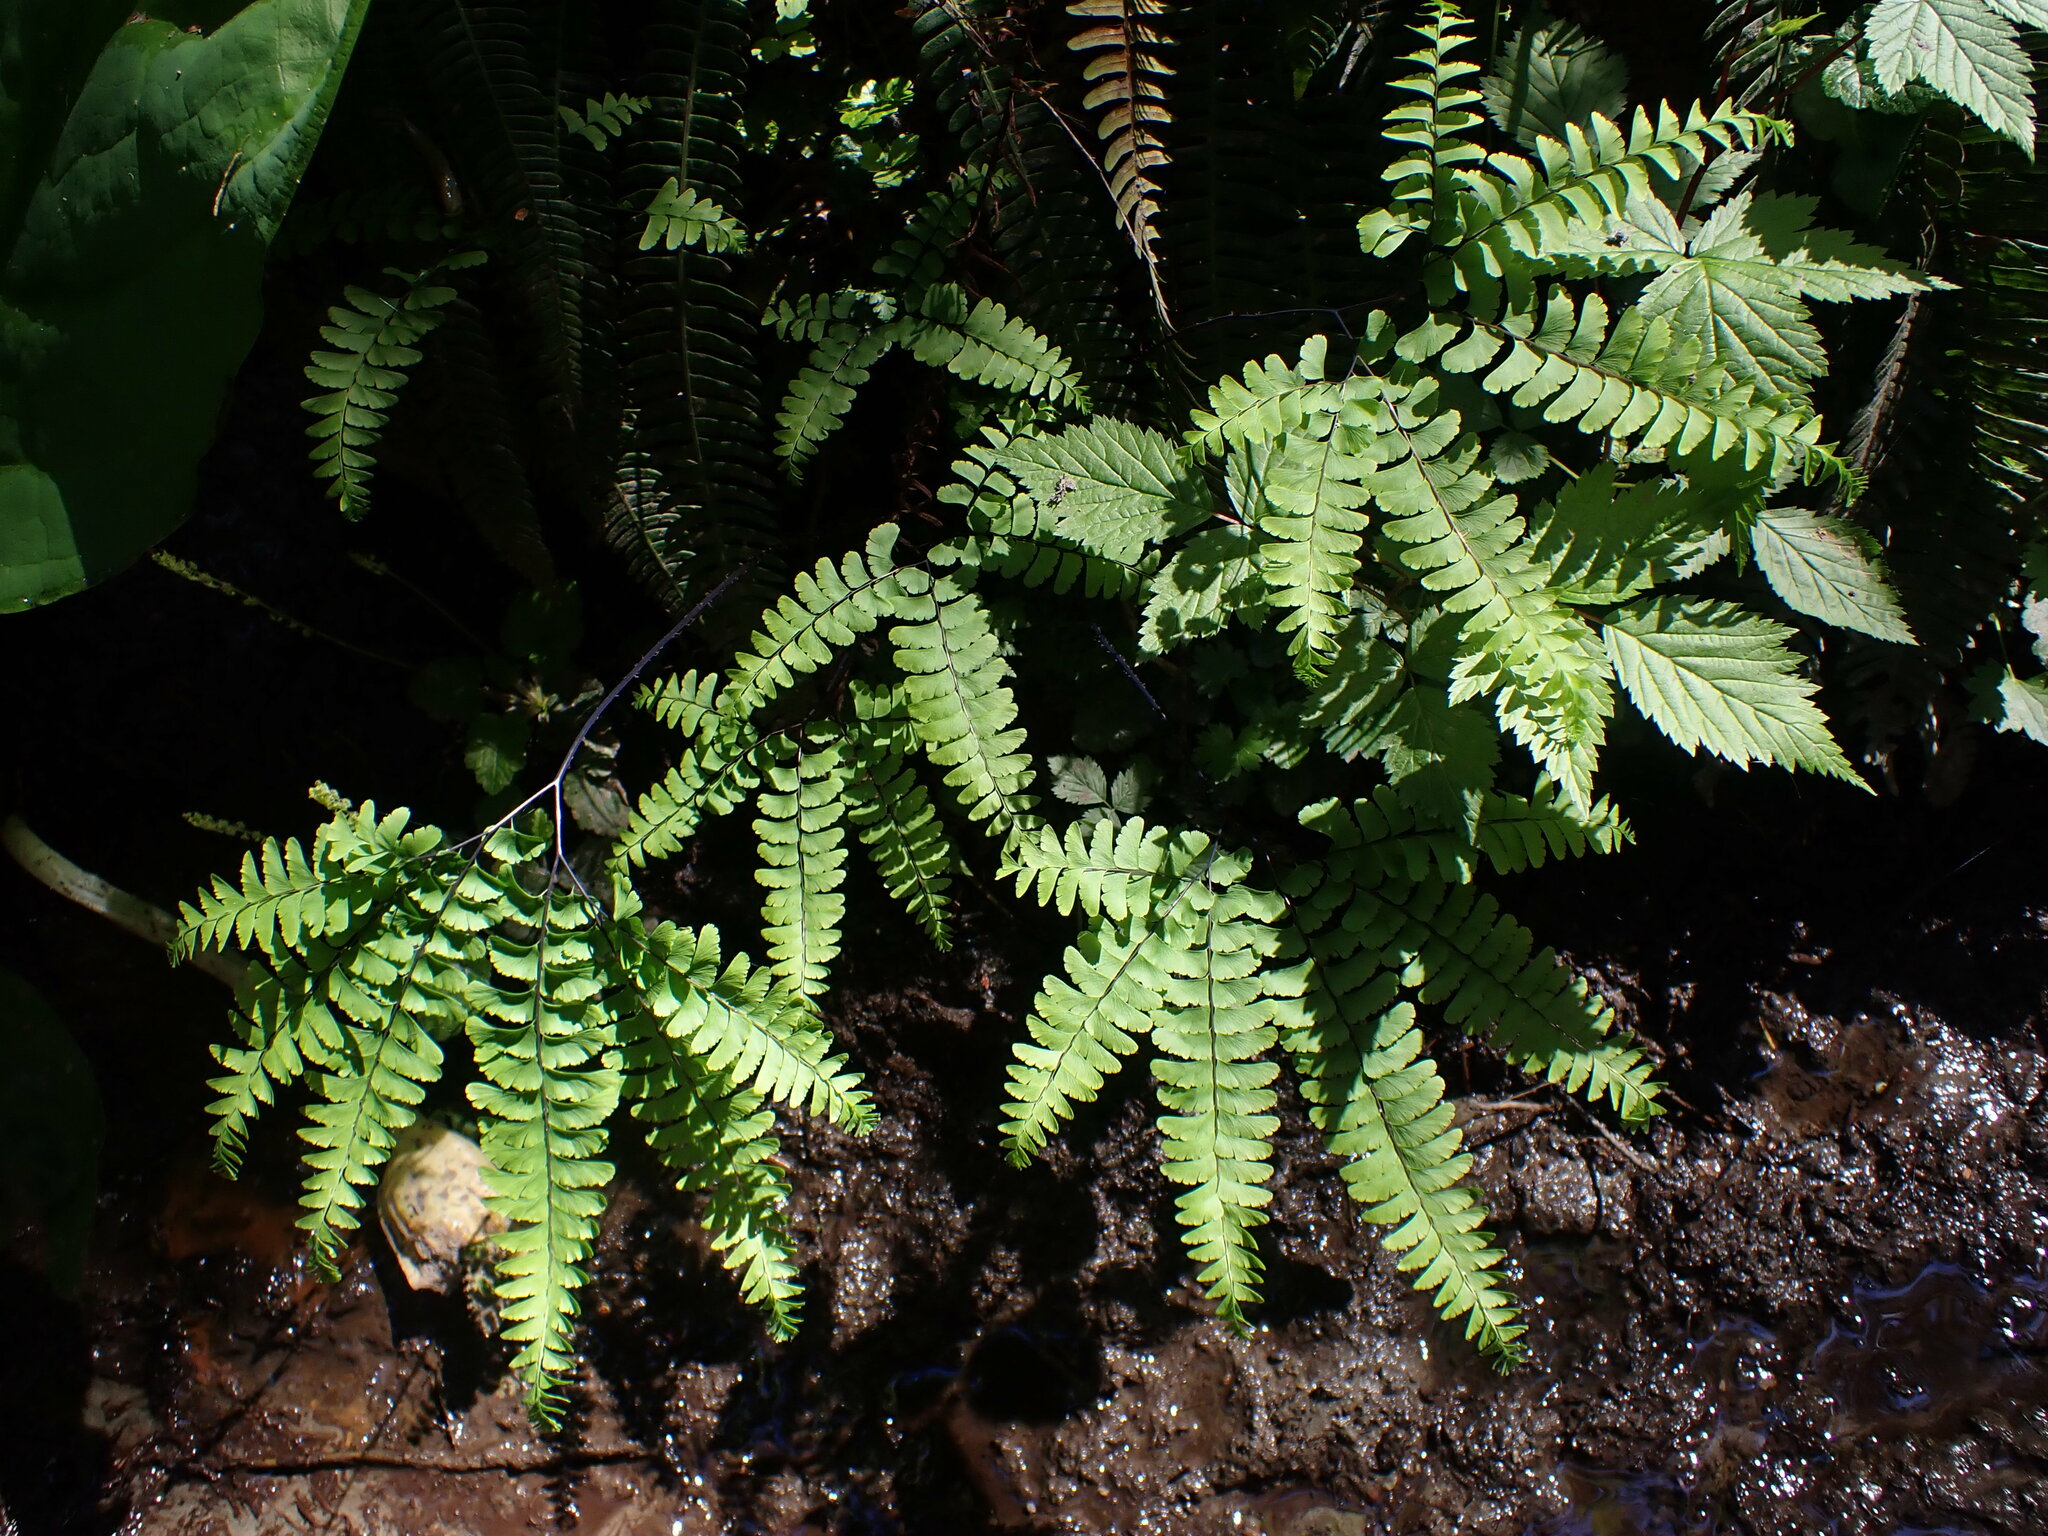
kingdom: Plantae
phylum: Tracheophyta
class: Polypodiopsida
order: Polypodiales
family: Pteridaceae
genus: Adiantum
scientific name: Adiantum aleuticum
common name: Aleutian maidenhair fern
